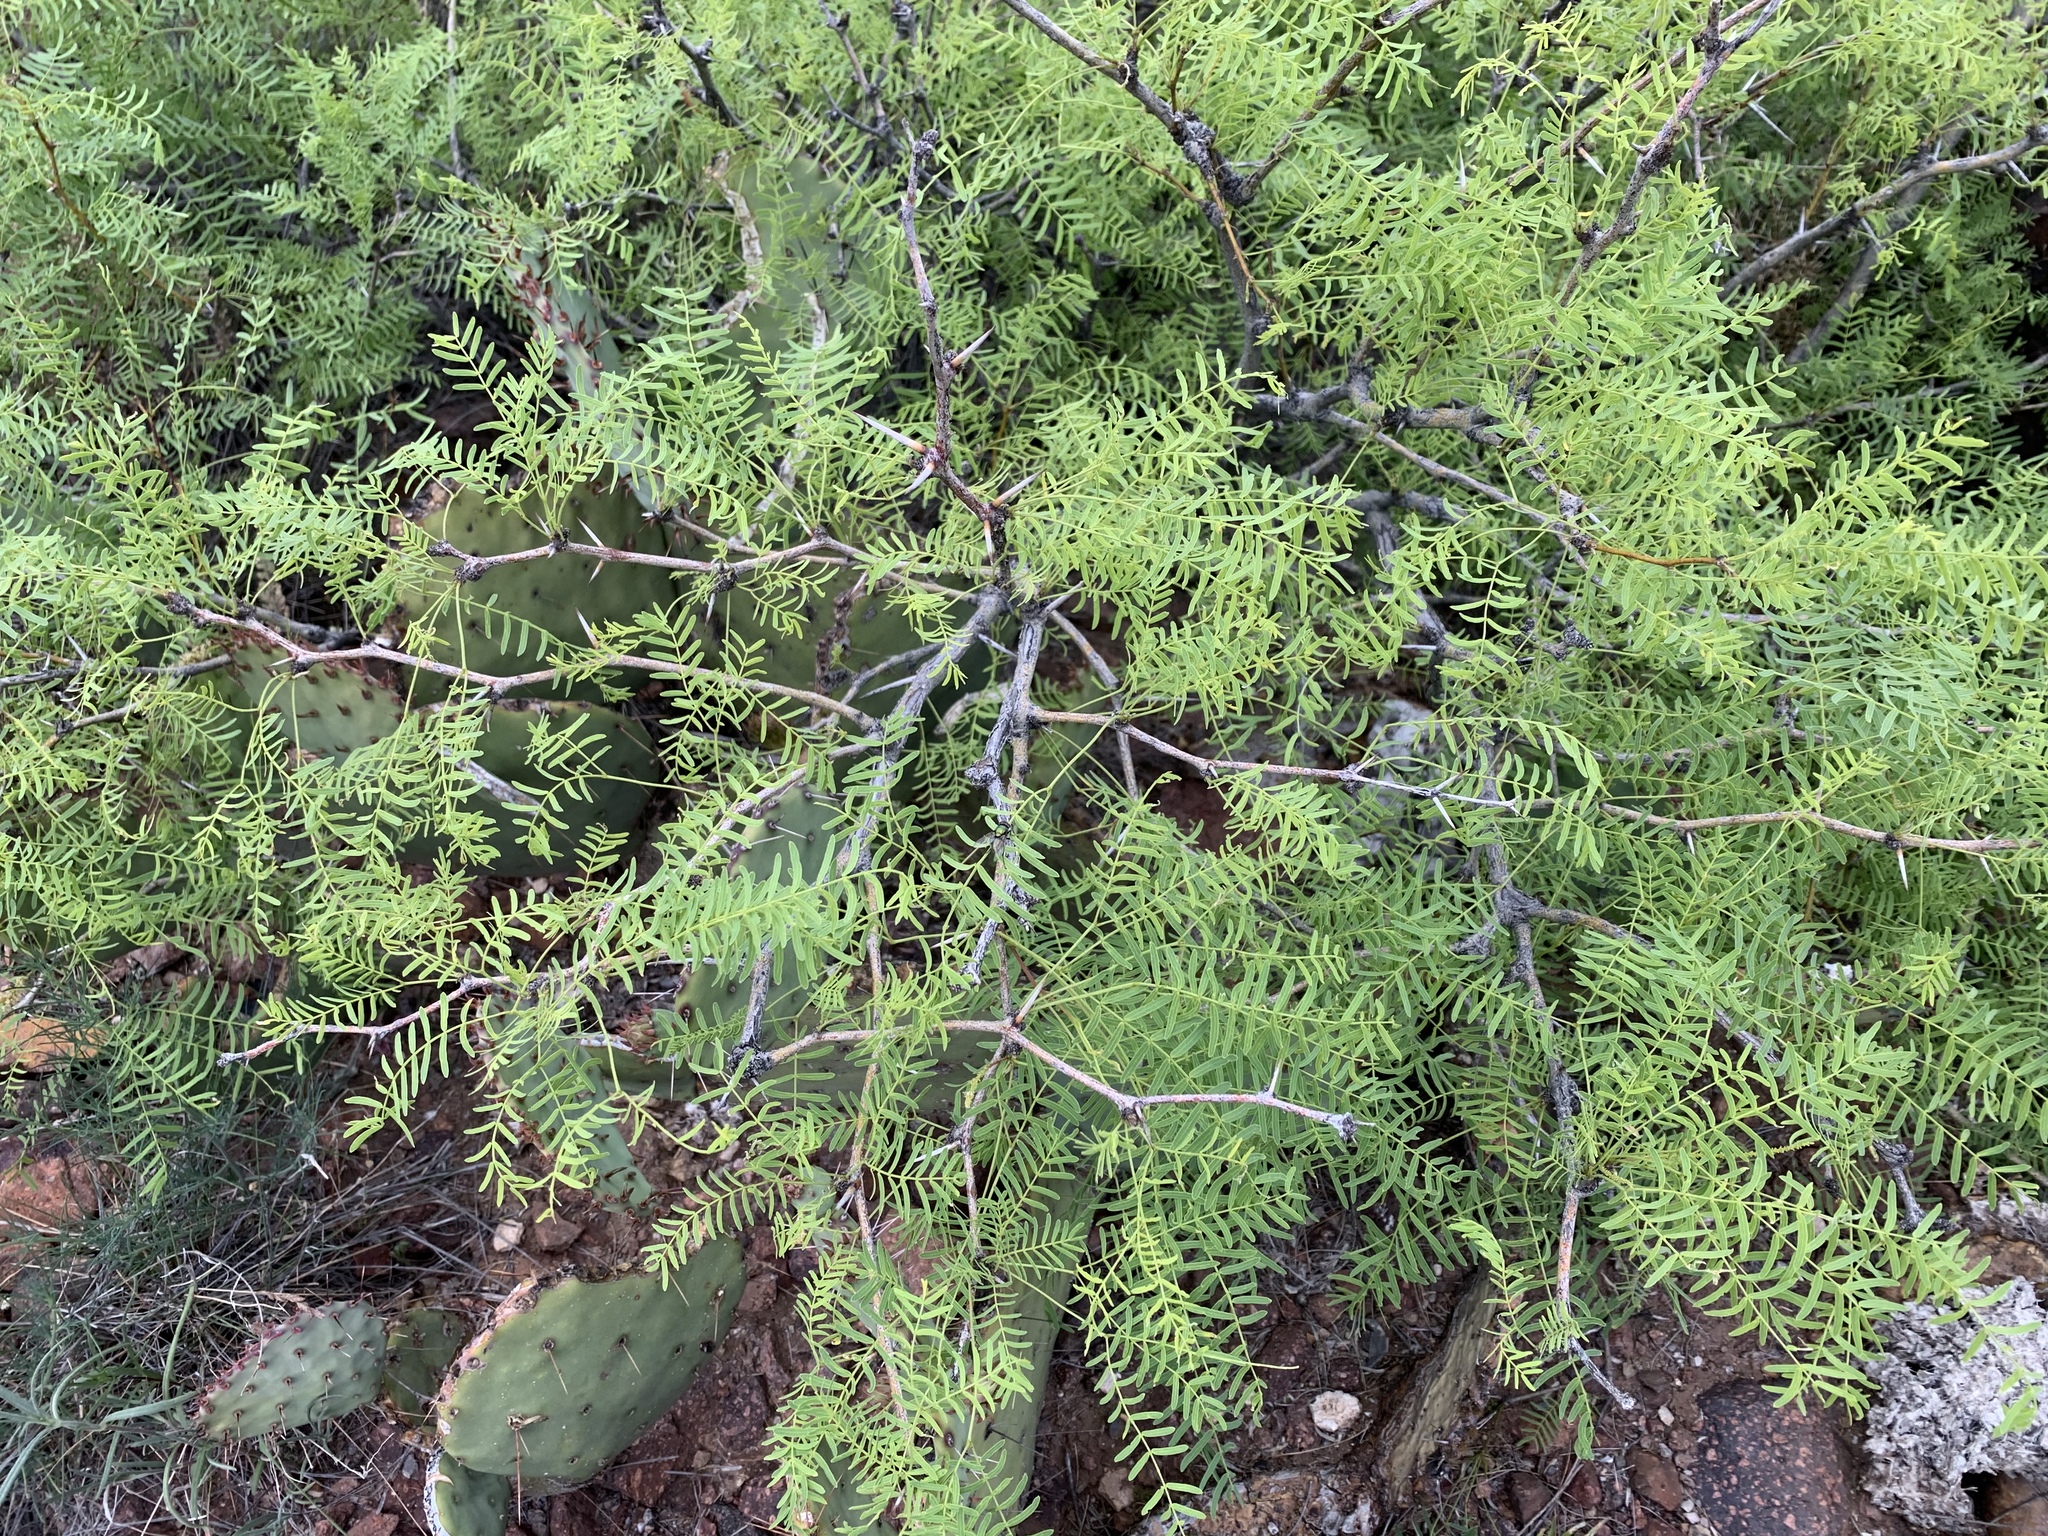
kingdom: Plantae
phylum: Tracheophyta
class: Magnoliopsida
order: Fabales
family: Fabaceae
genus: Prosopis
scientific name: Prosopis glandulosa
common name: Honey mesquite
